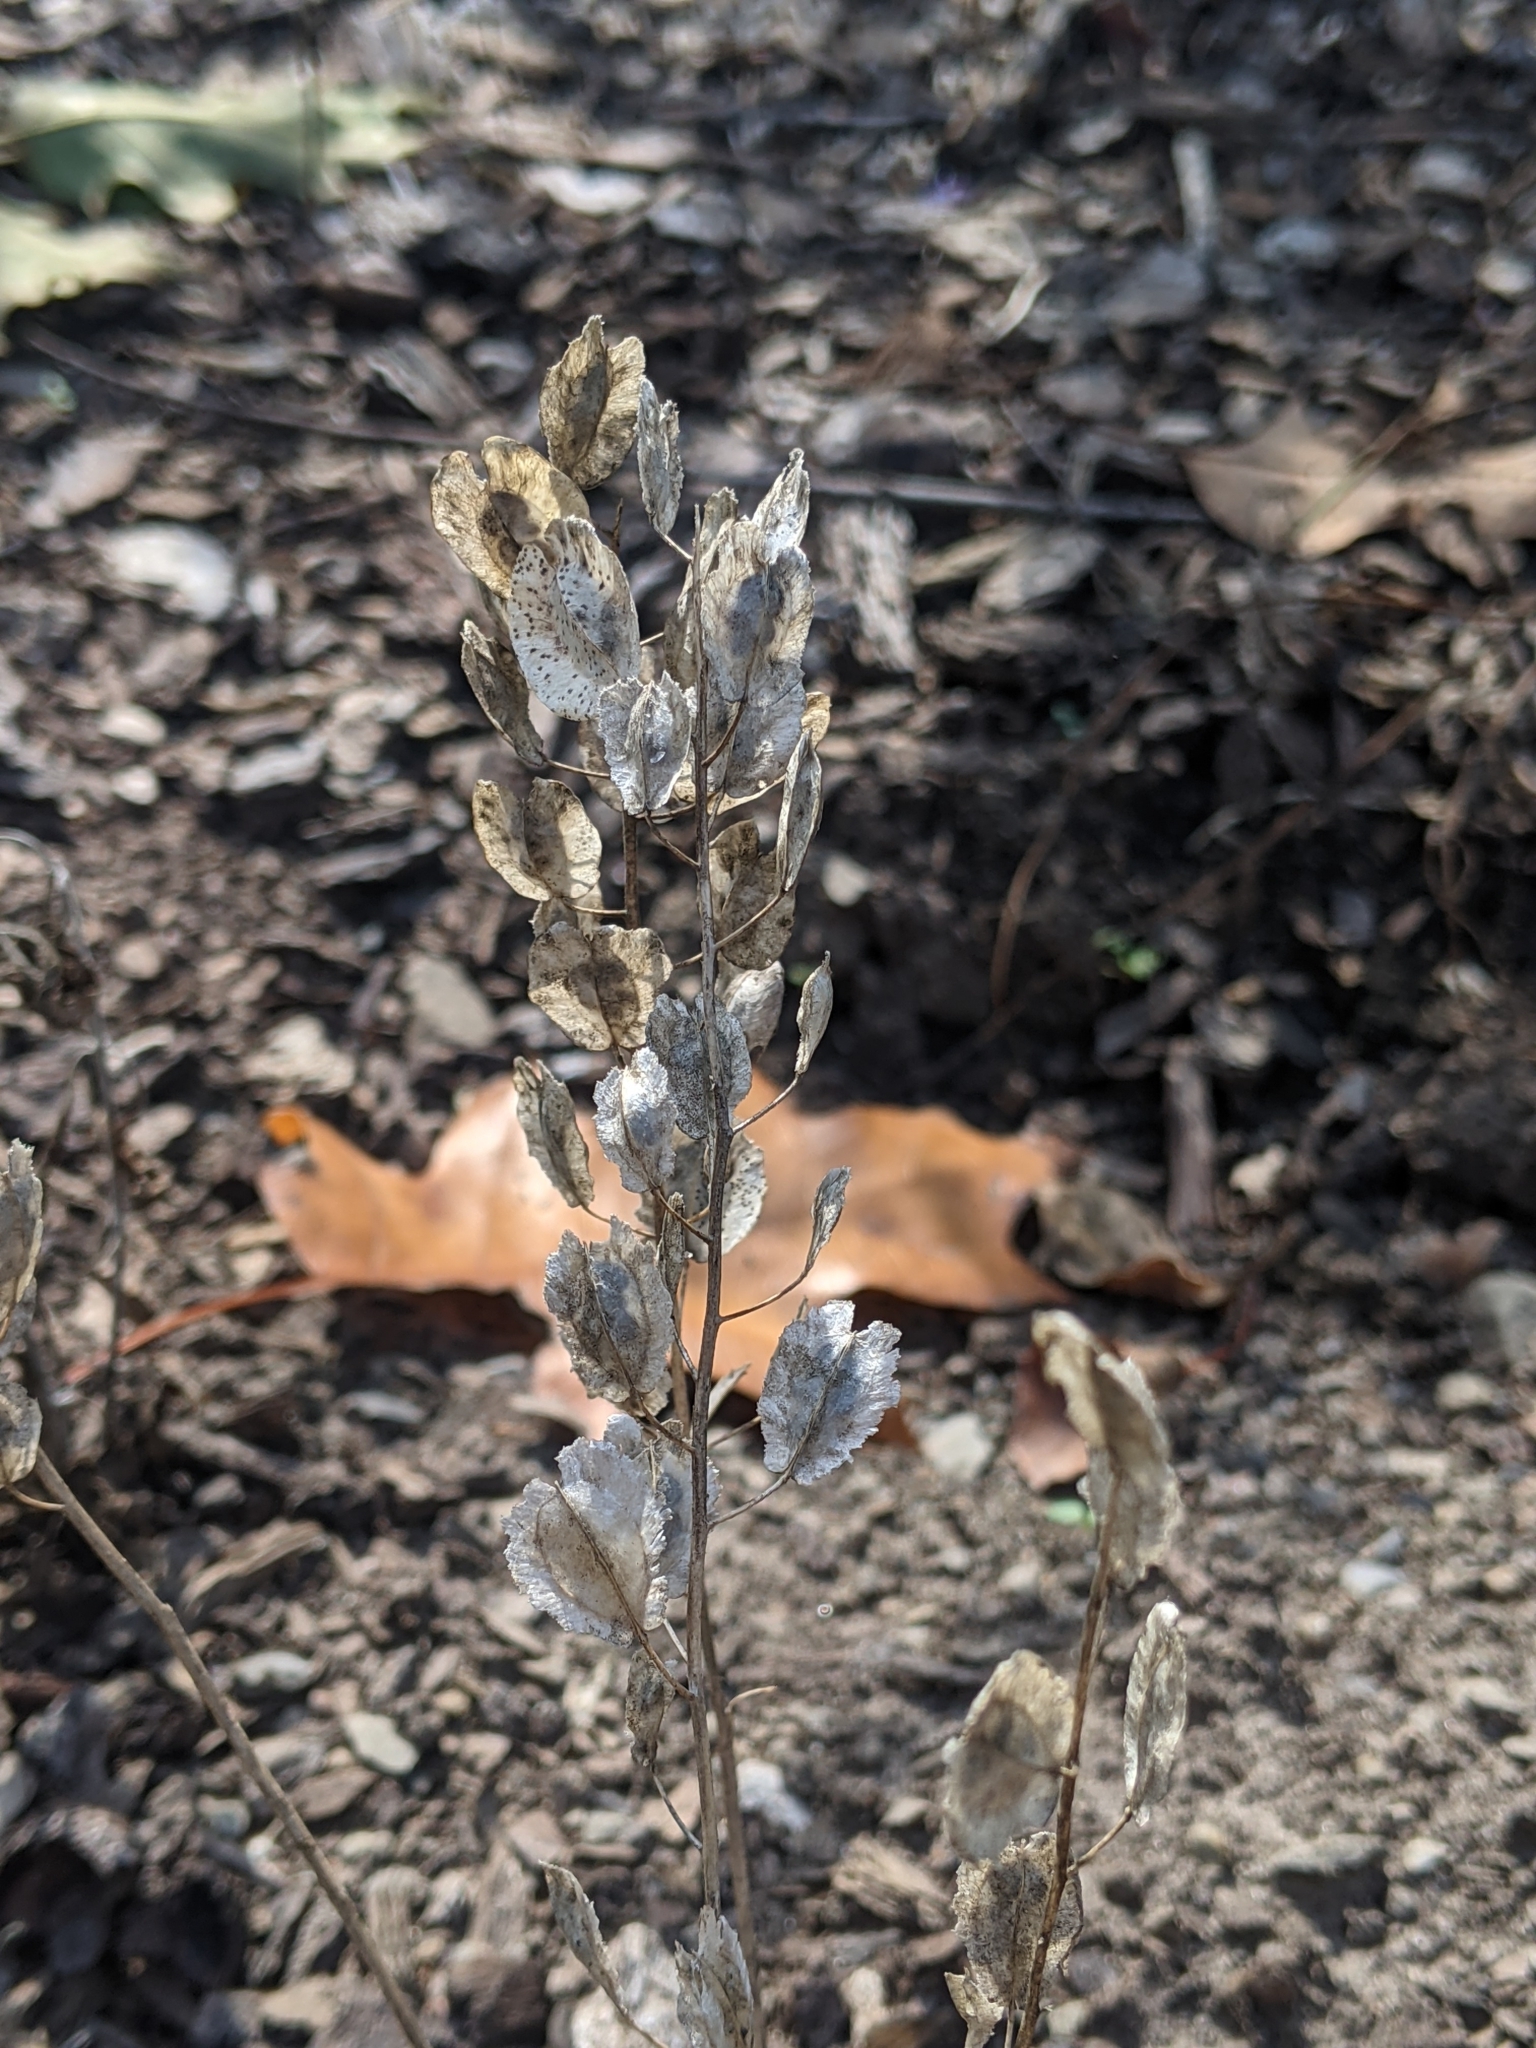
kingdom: Plantae
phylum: Tracheophyta
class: Magnoliopsida
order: Brassicales
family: Brassicaceae
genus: Thlaspi
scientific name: Thlaspi arvense
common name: Field pennycress
